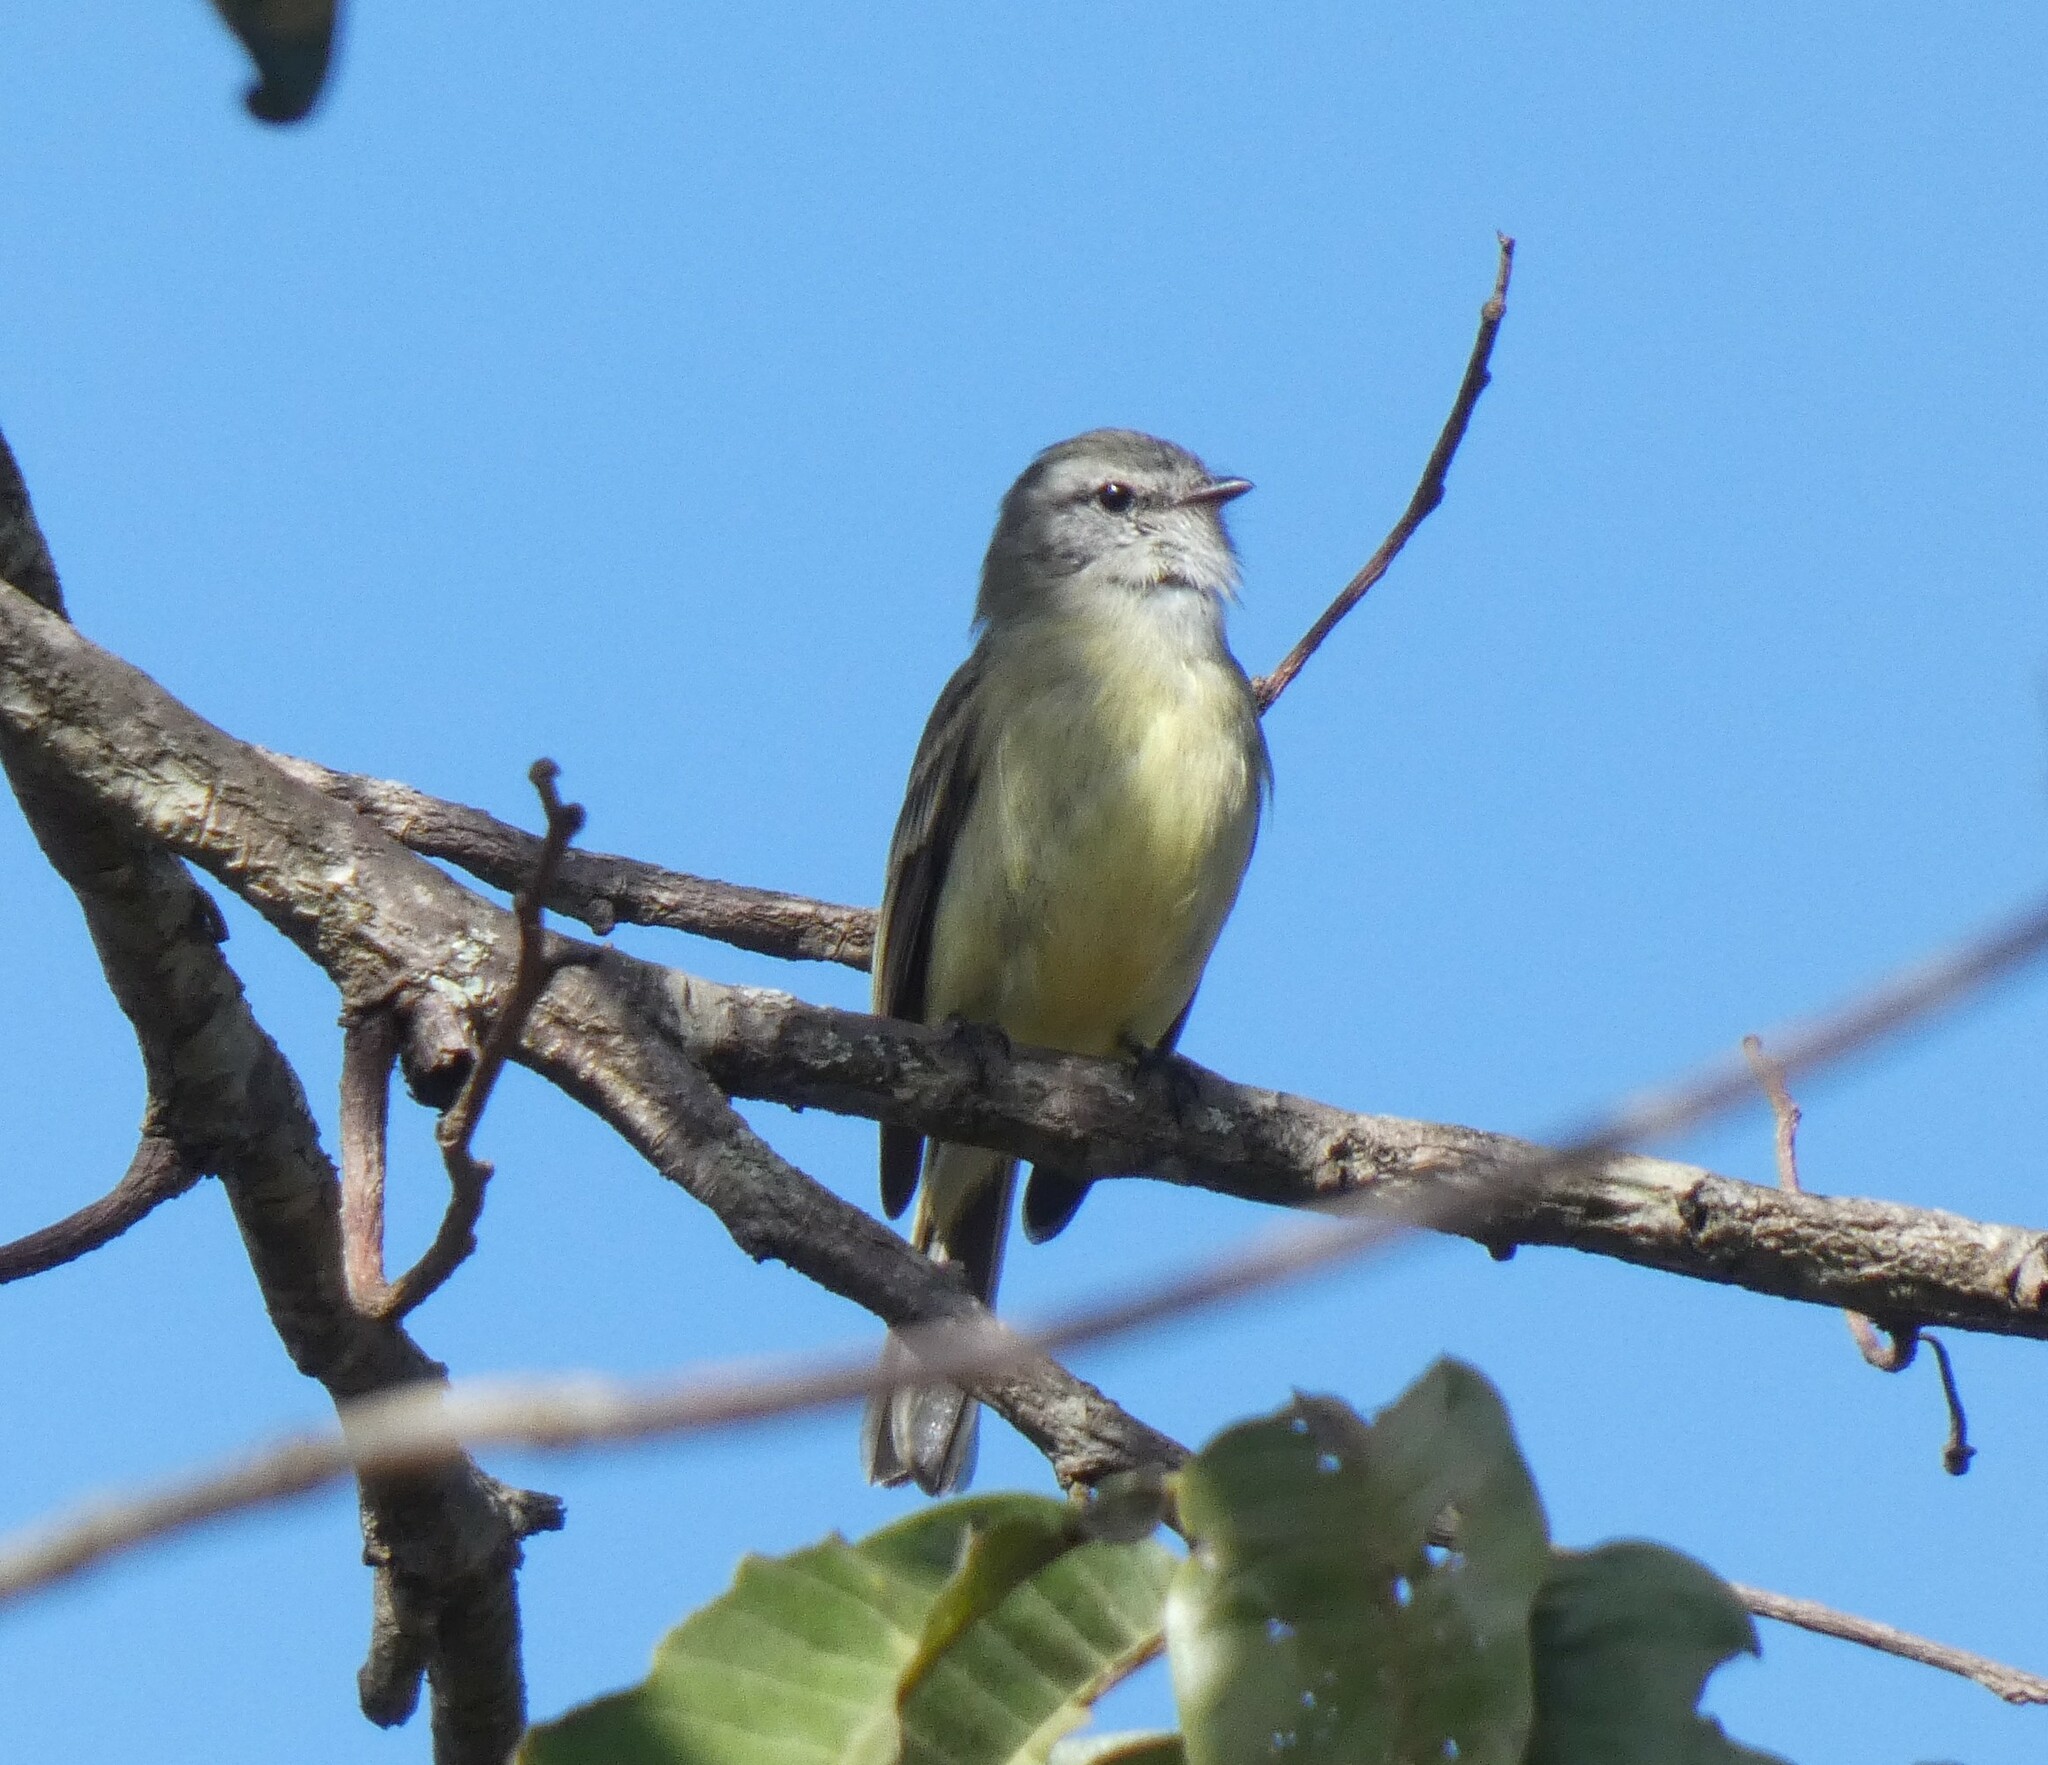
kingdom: Animalia
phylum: Chordata
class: Aves
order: Passeriformes
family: Tyrannidae
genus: Phyllomyias
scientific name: Phyllomyias fasciatus
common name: Planalto tyrannulet
